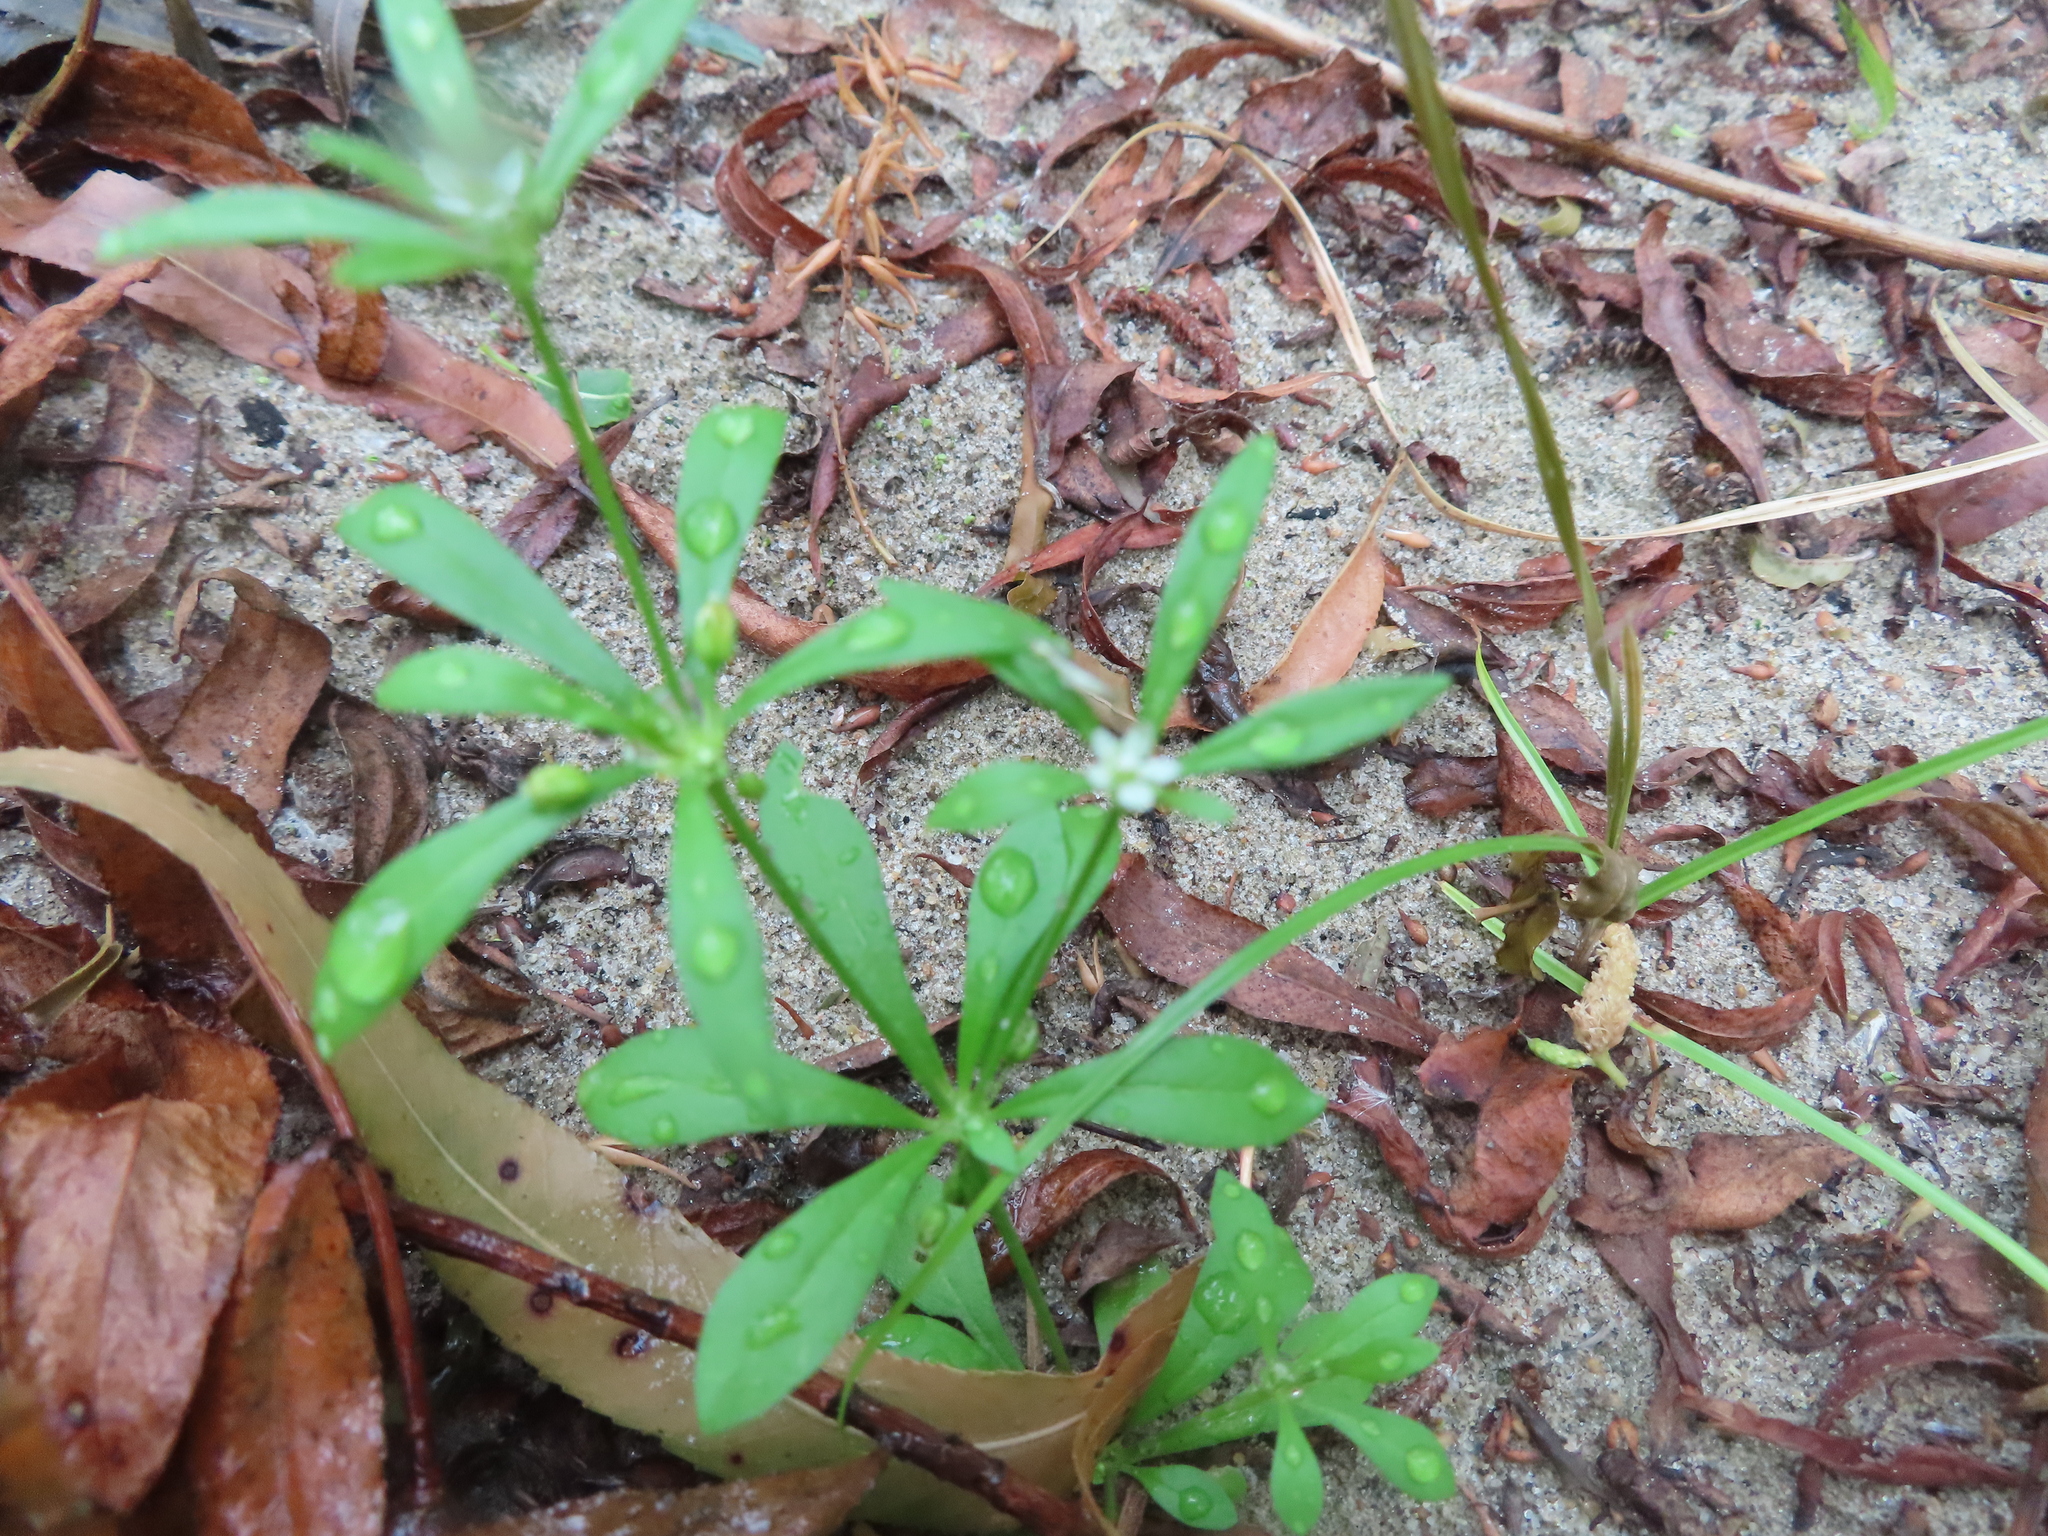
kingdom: Plantae
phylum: Tracheophyta
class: Magnoliopsida
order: Caryophyllales
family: Molluginaceae
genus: Mollugo
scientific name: Mollugo verticillata
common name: Green carpetweed
